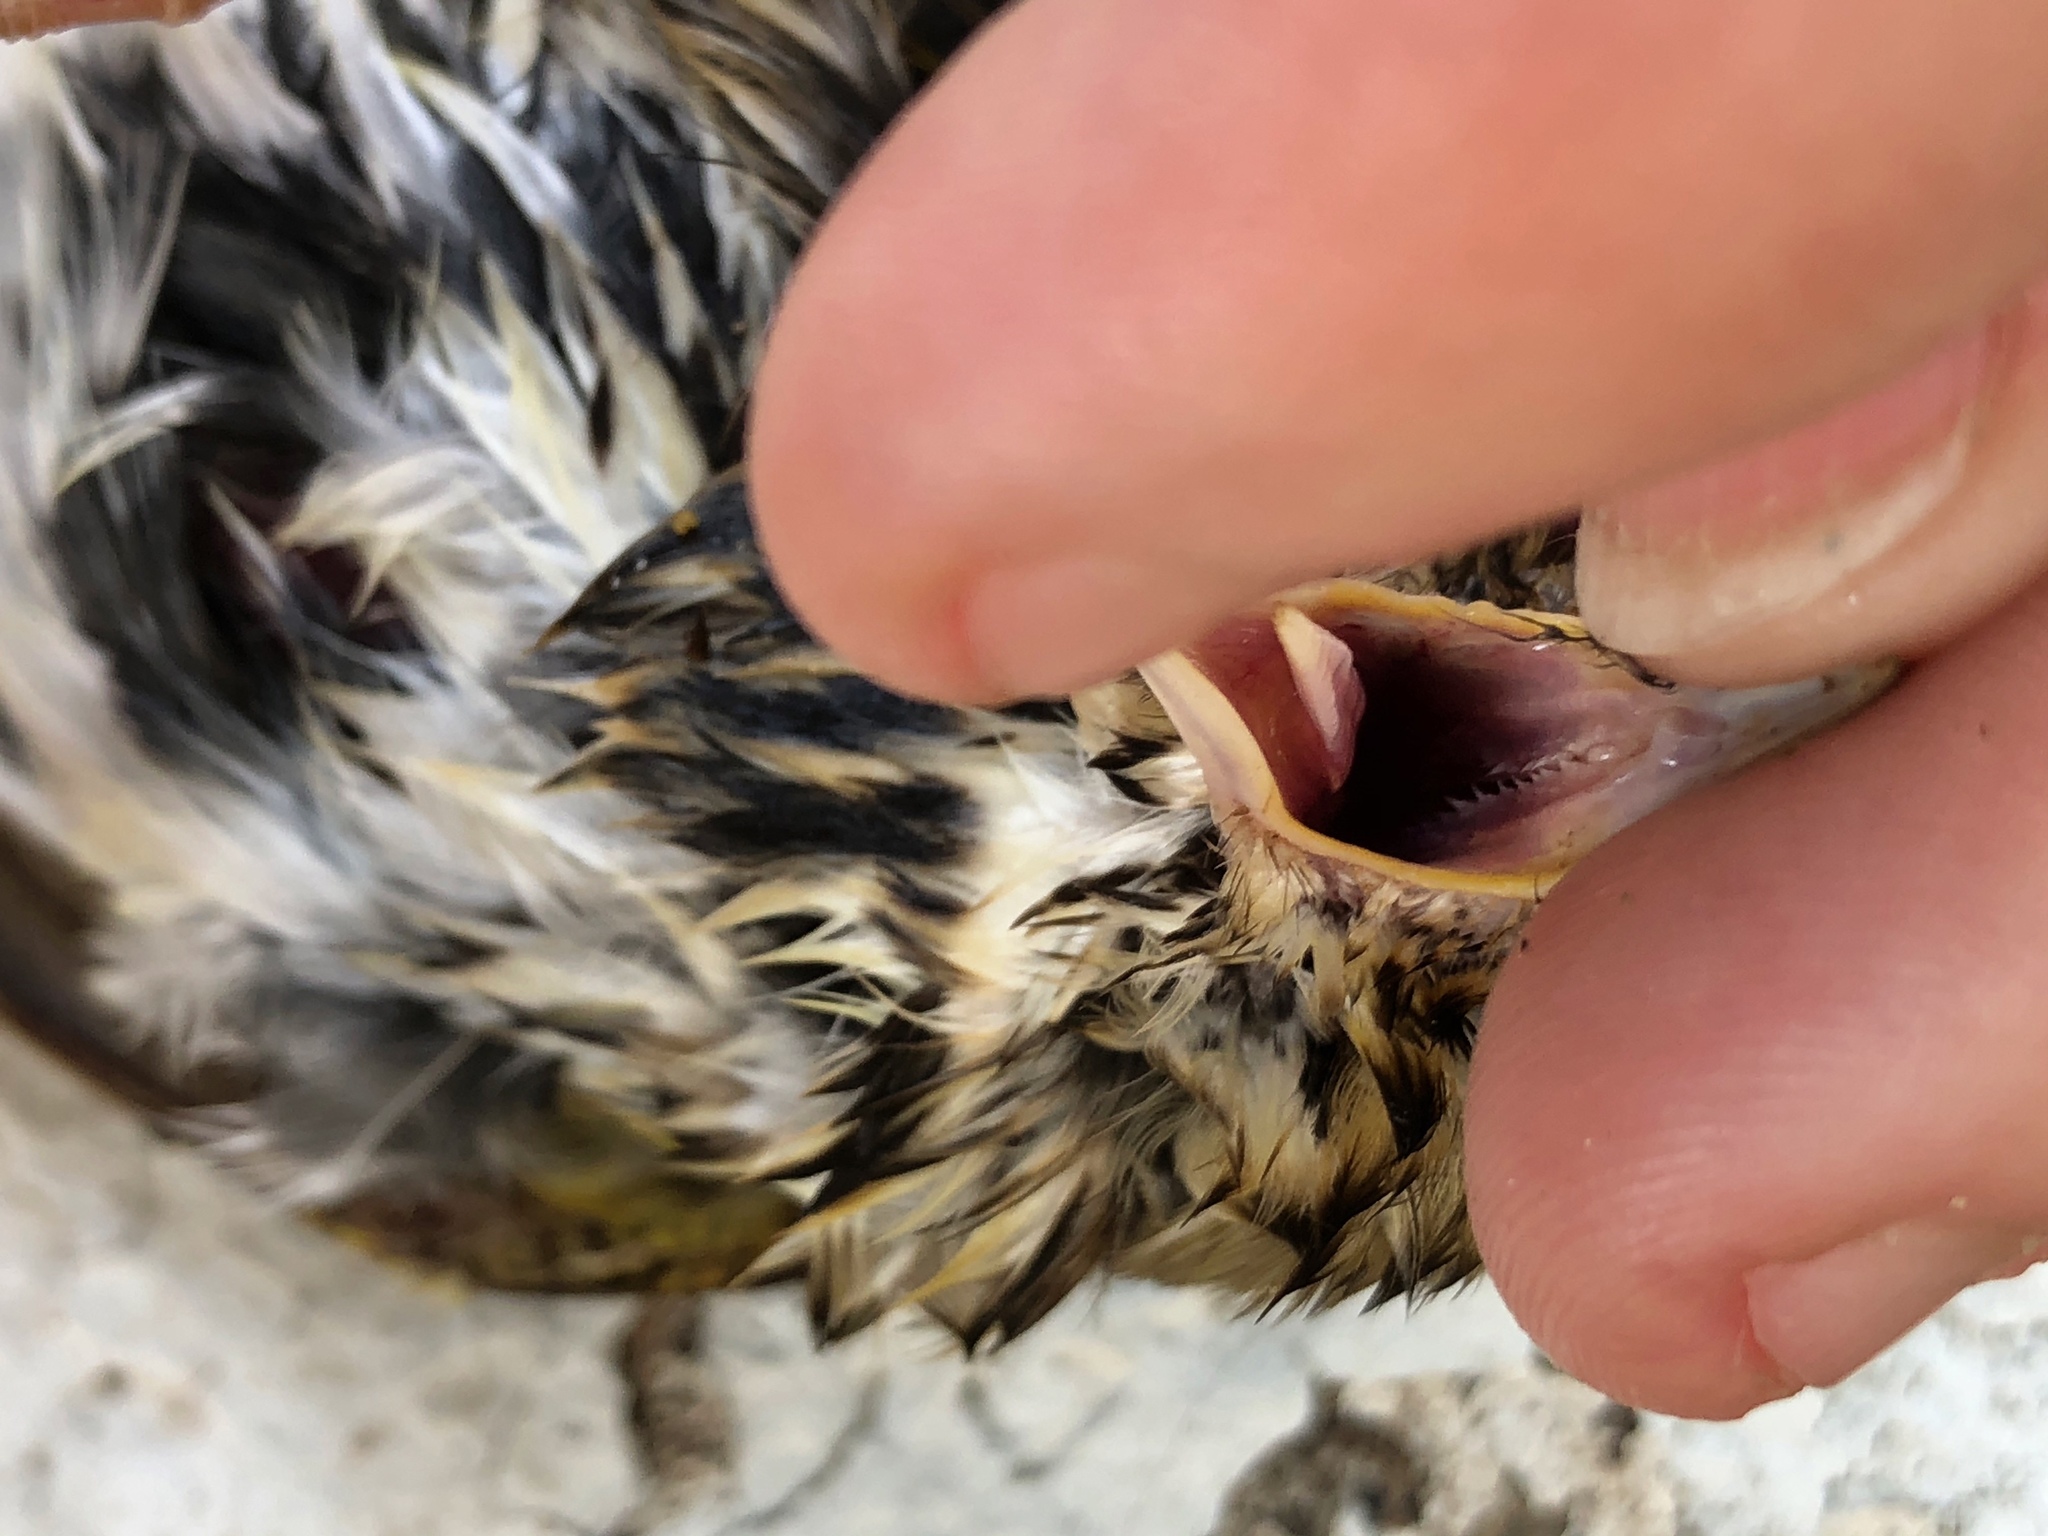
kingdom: Animalia
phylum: Chordata
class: Aves
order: Passeriformes
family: Parulidae
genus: Seiurus
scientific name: Seiurus aurocapilla
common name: Ovenbird
